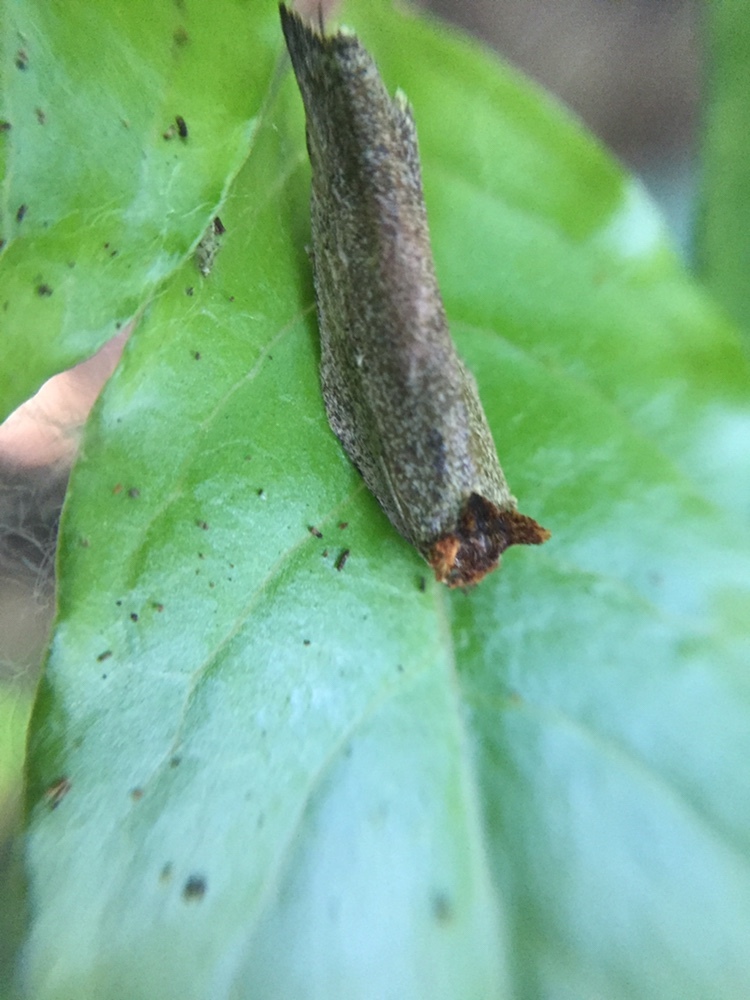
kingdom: Animalia
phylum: Arthropoda
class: Insecta
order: Lepidoptera
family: Tortricidae
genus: Epalxiphora
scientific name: Epalxiphora axenana
